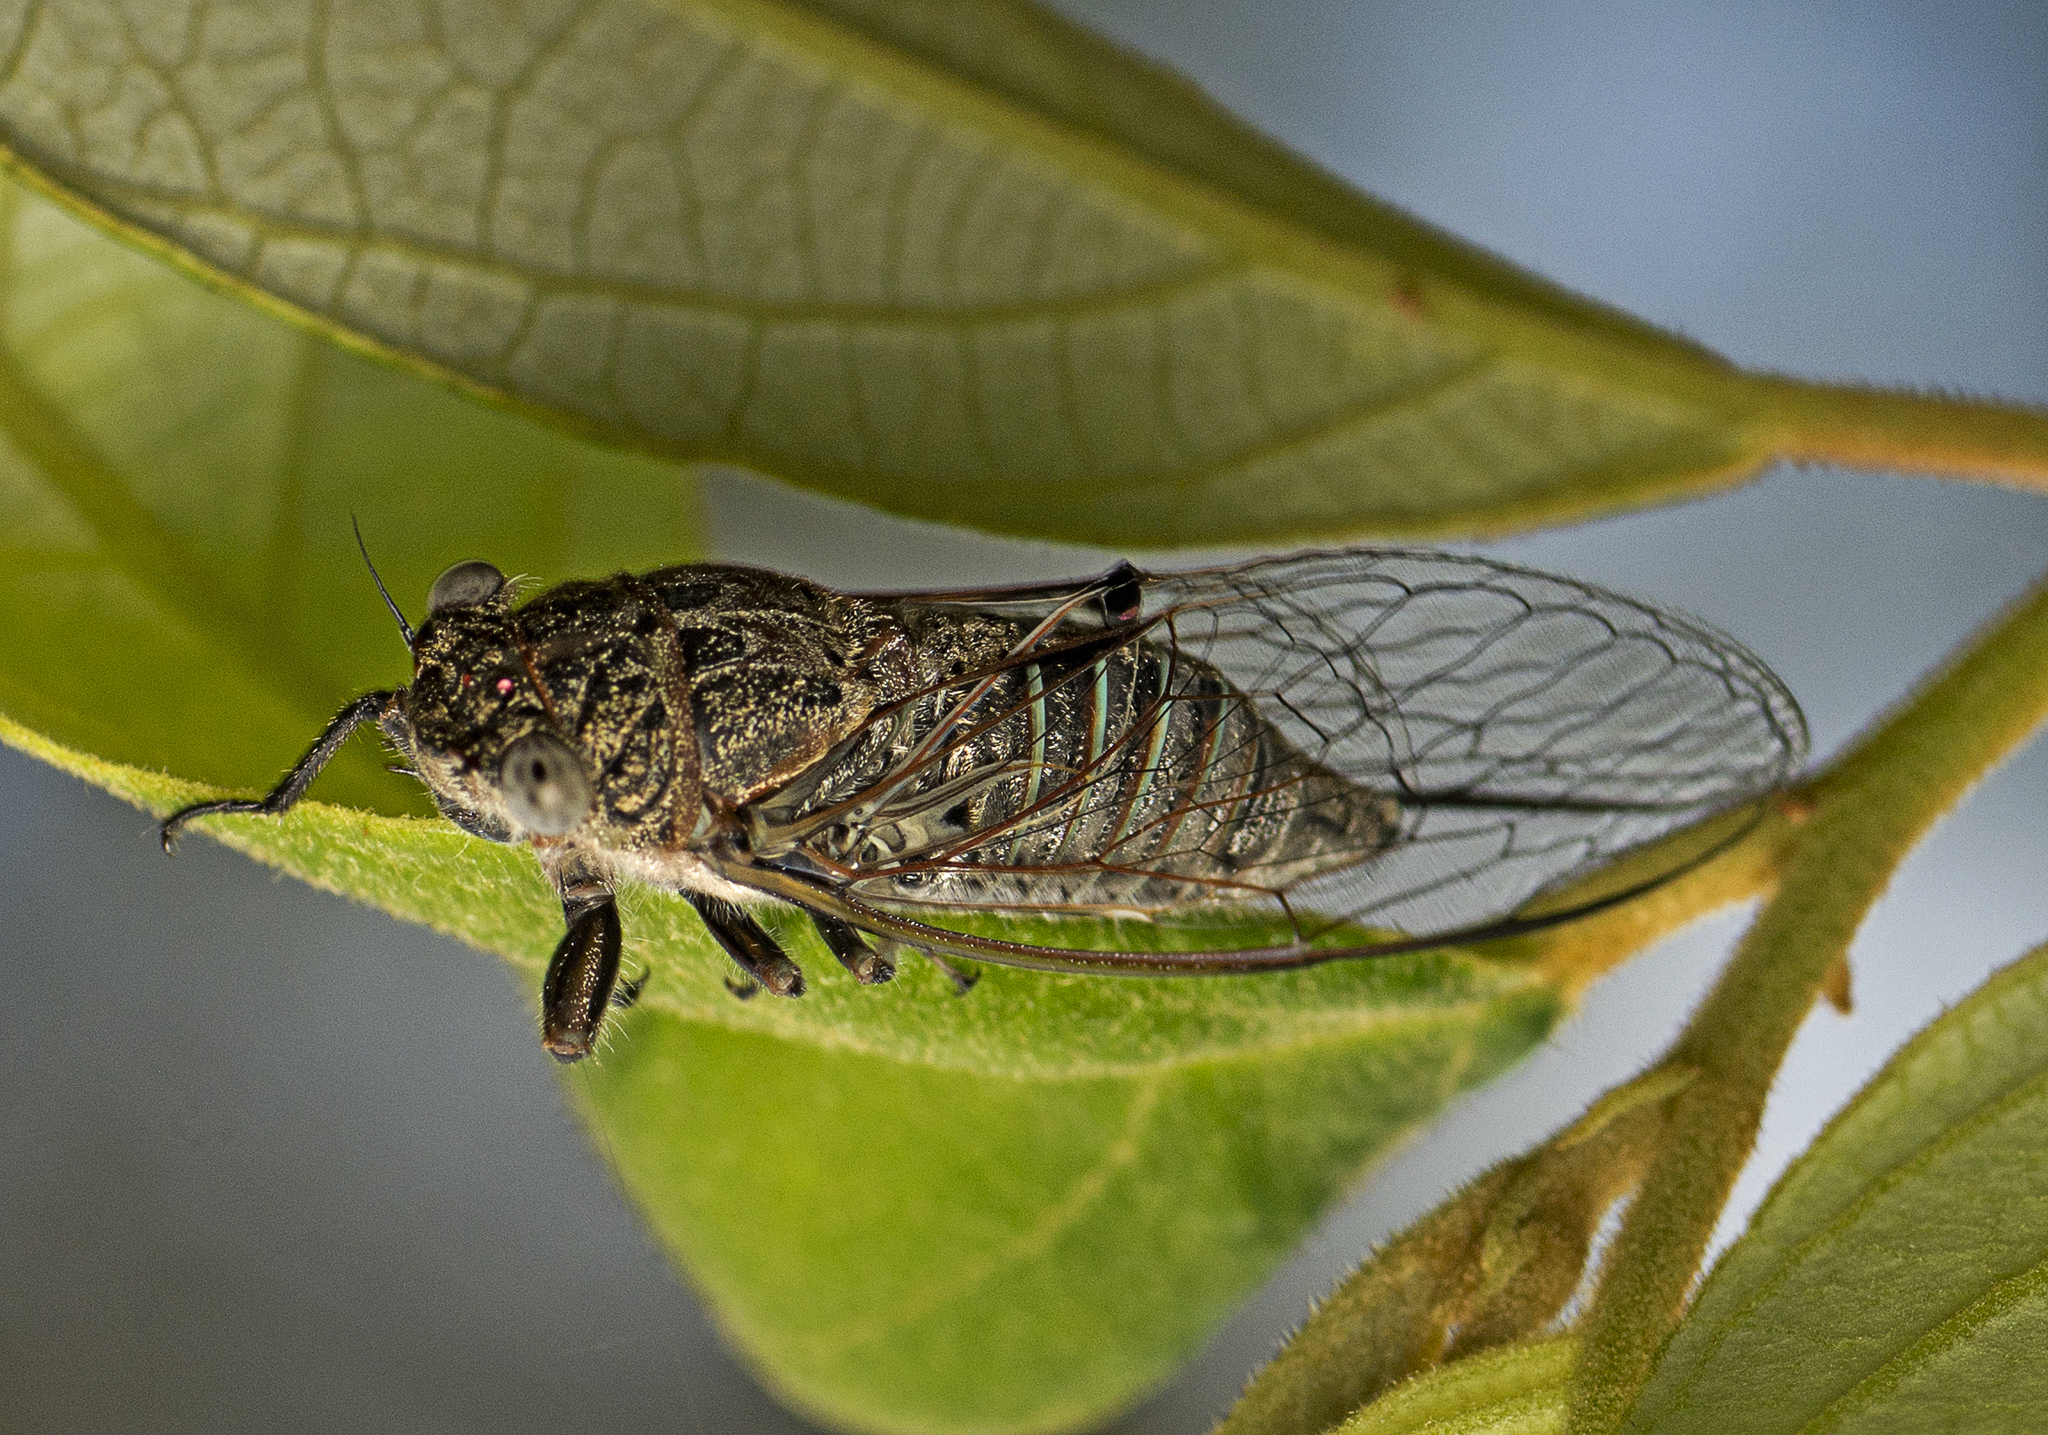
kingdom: Animalia
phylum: Arthropoda
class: Insecta
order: Hemiptera
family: Cicadidae
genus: Atrapsalta
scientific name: Atrapsalta corticina
